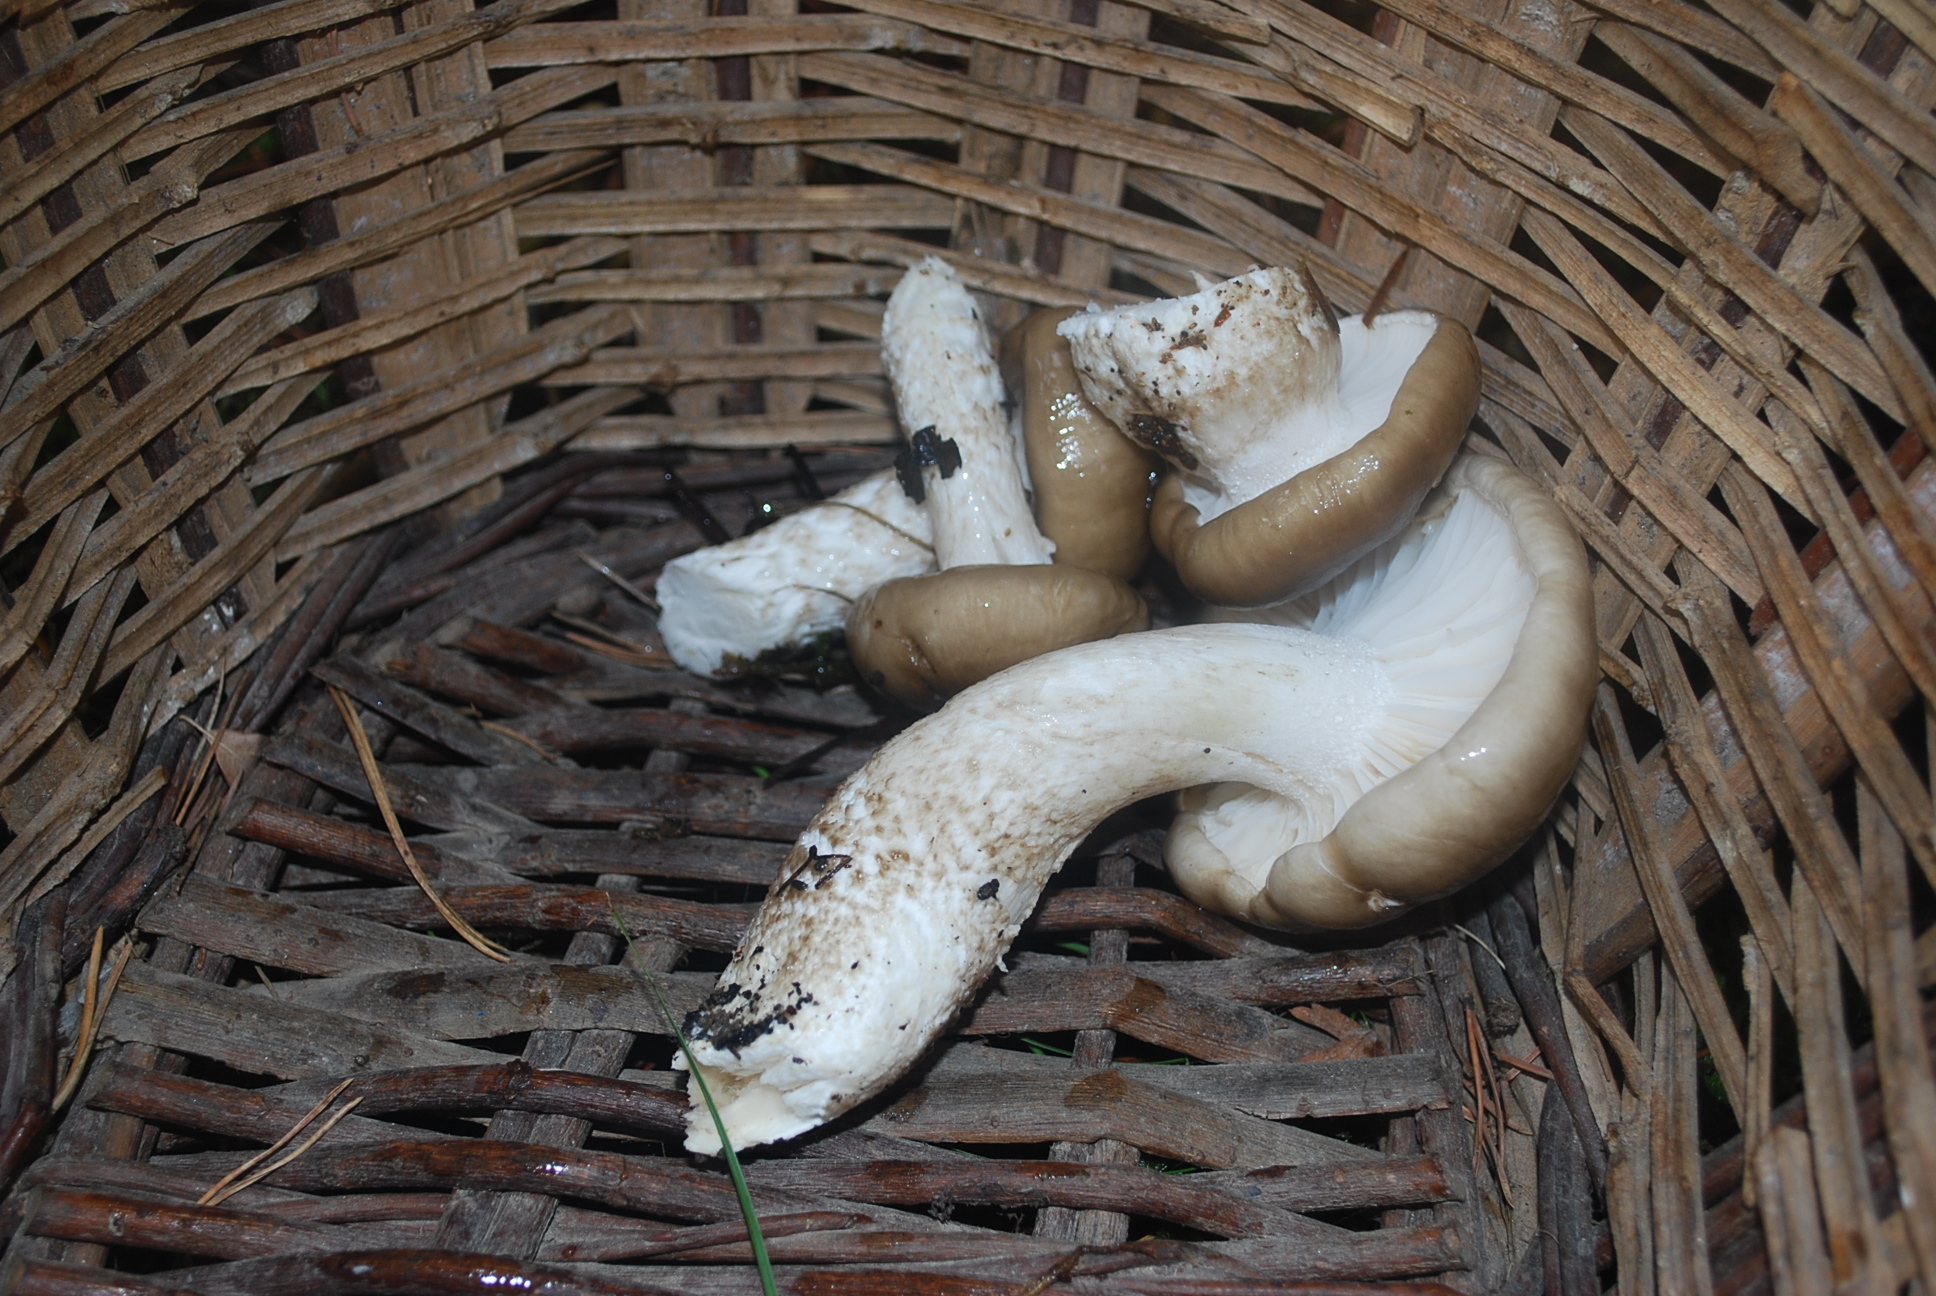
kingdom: Fungi
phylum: Basidiomycota
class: Agaricomycetes
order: Agaricales
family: Hygrophoraceae
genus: Hygrophorus
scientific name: Hygrophorus limacinus
